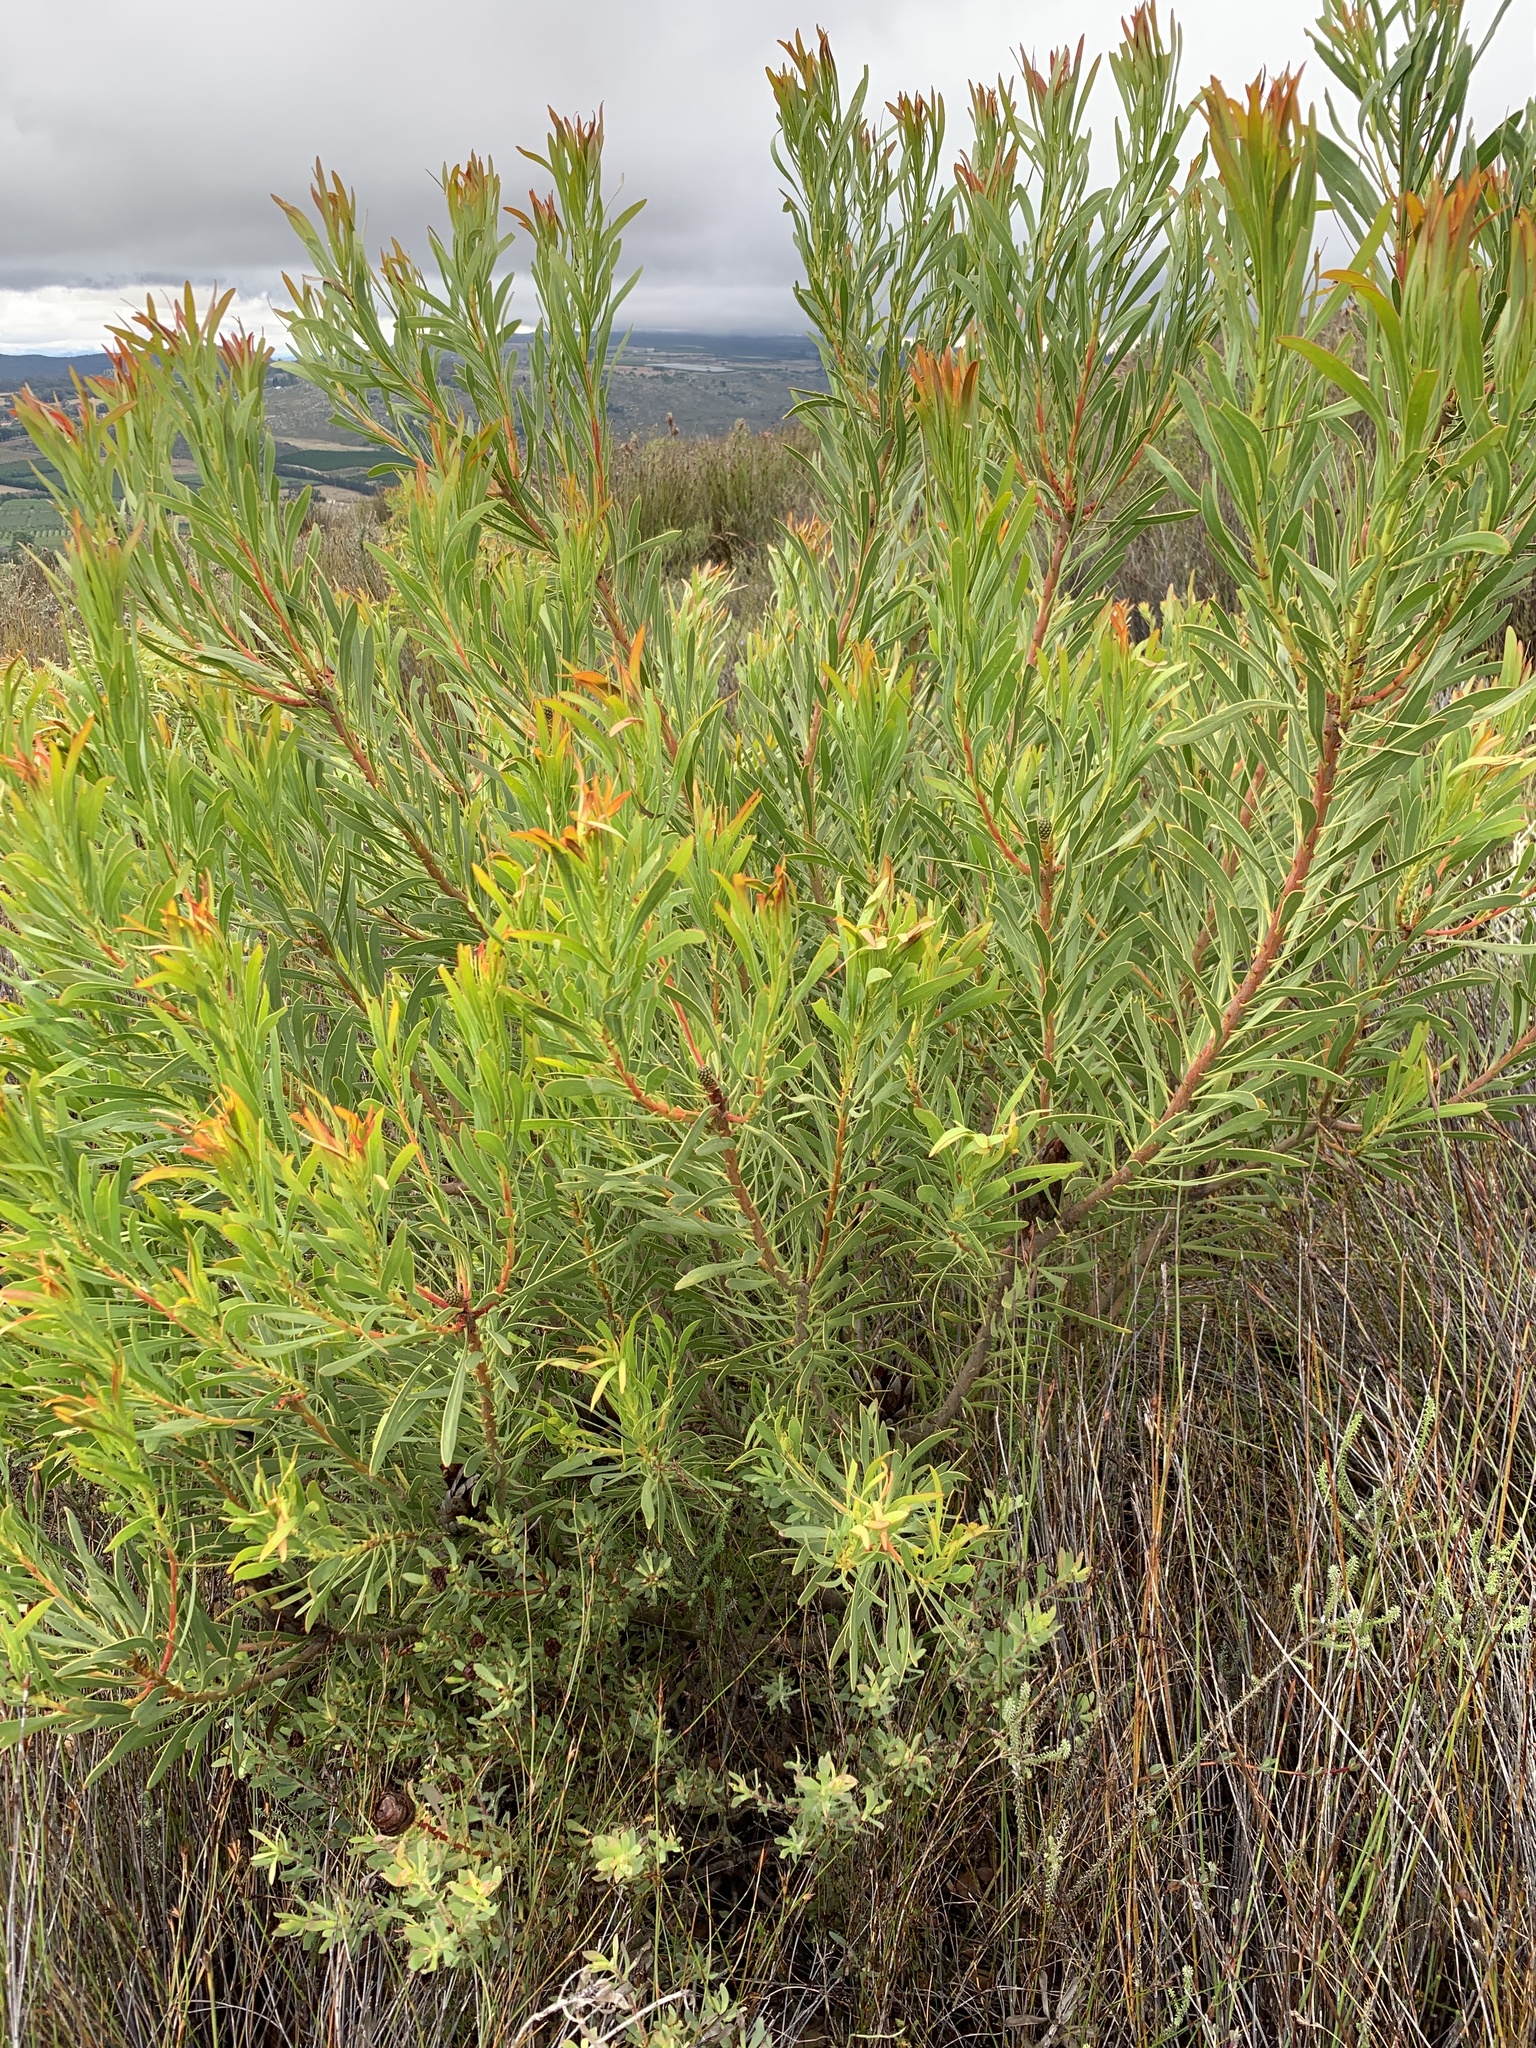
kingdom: Plantae
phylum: Tracheophyta
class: Magnoliopsida
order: Proteales
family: Proteaceae
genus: Protea
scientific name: Protea repens
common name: Sugarbush
